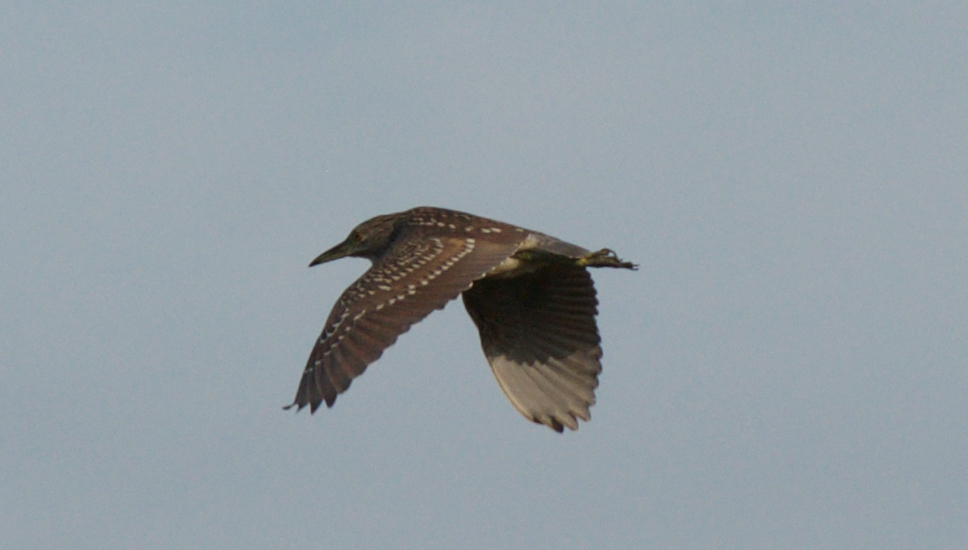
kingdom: Animalia
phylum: Chordata
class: Aves
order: Pelecaniformes
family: Ardeidae
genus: Nycticorax
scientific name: Nycticorax nycticorax
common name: Black-crowned night heron
